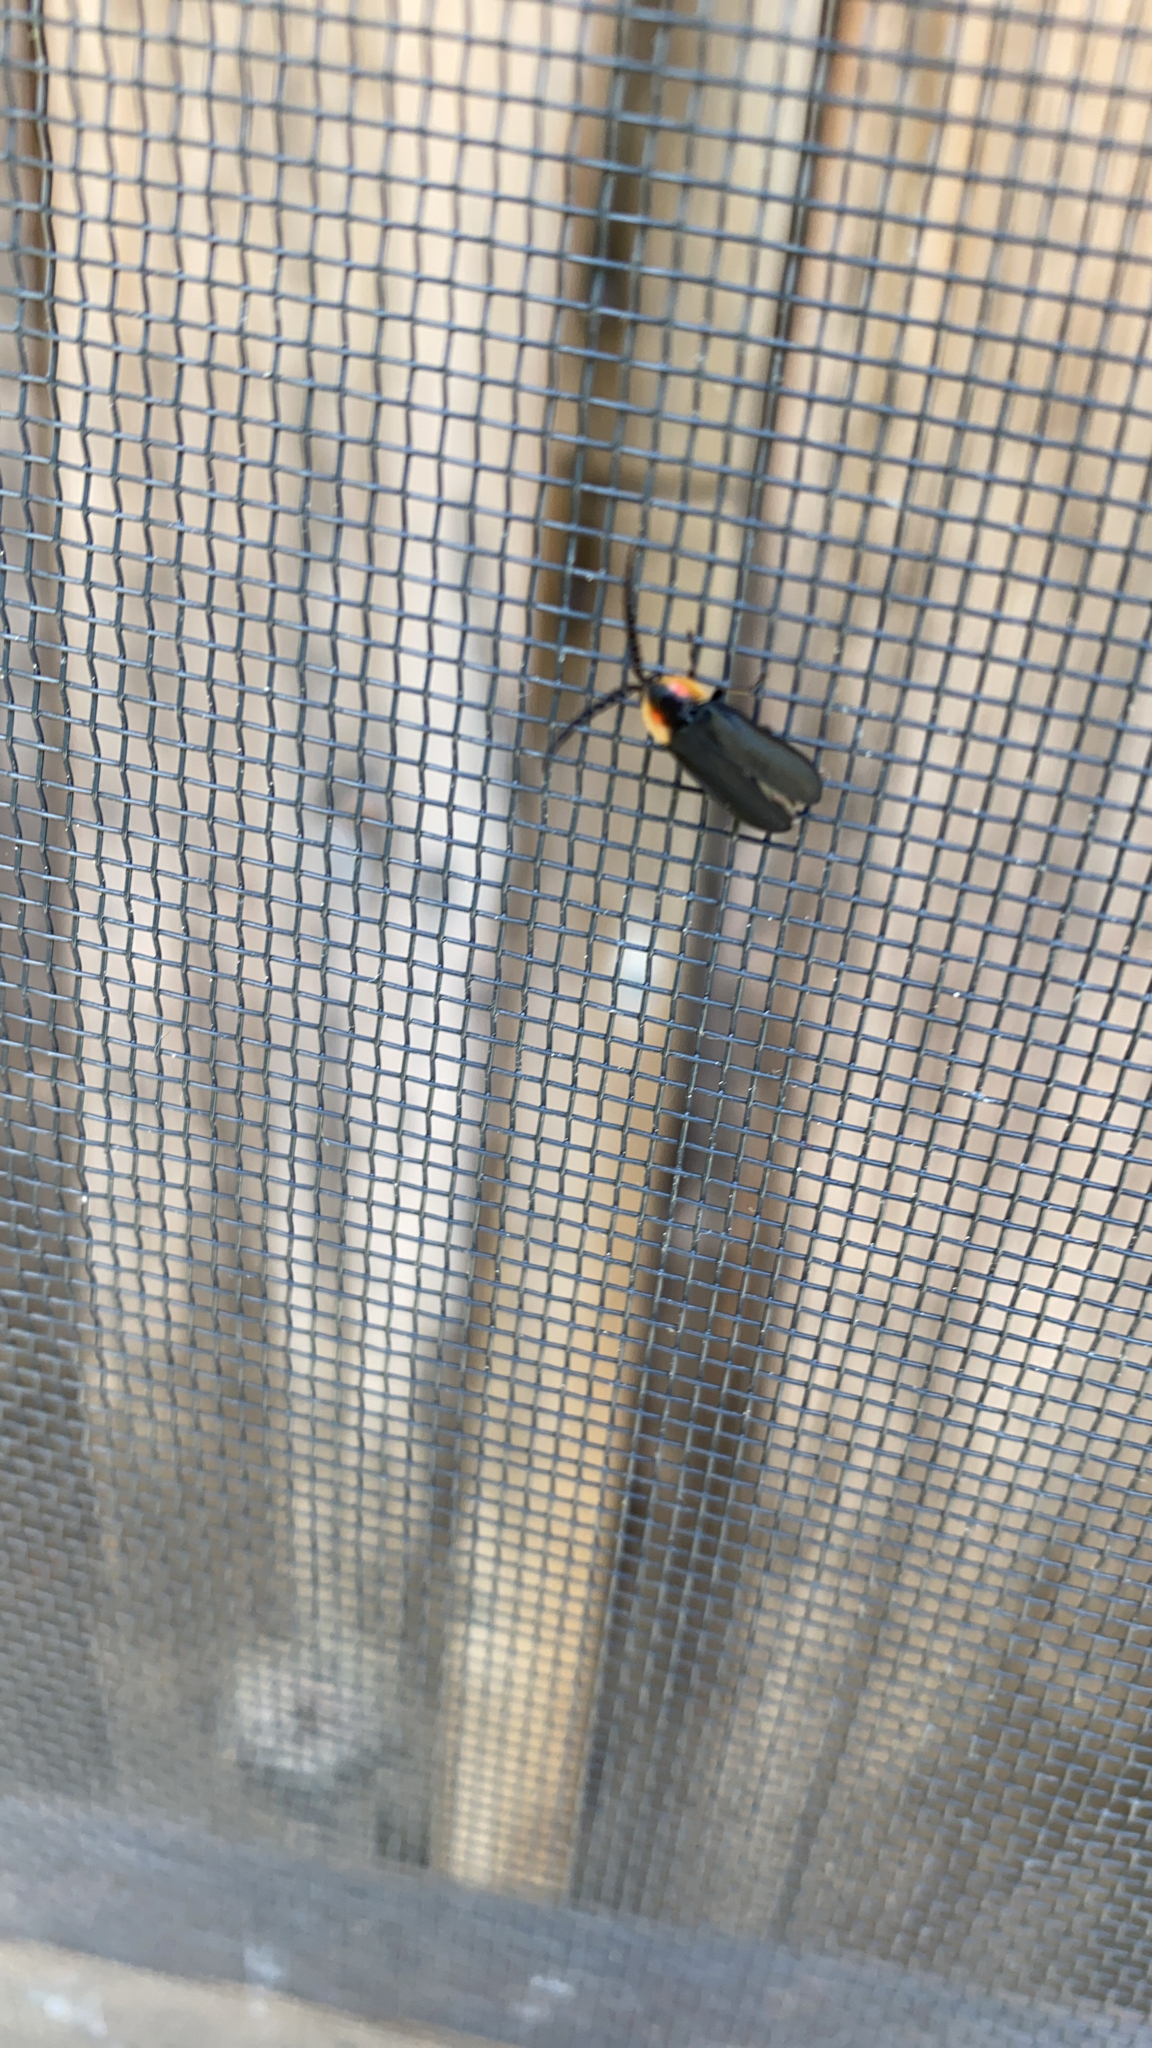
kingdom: Animalia
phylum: Arthropoda
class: Insecta
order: Coleoptera
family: Lampyridae
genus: Lucidota
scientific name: Lucidota atra
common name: Black firefly
